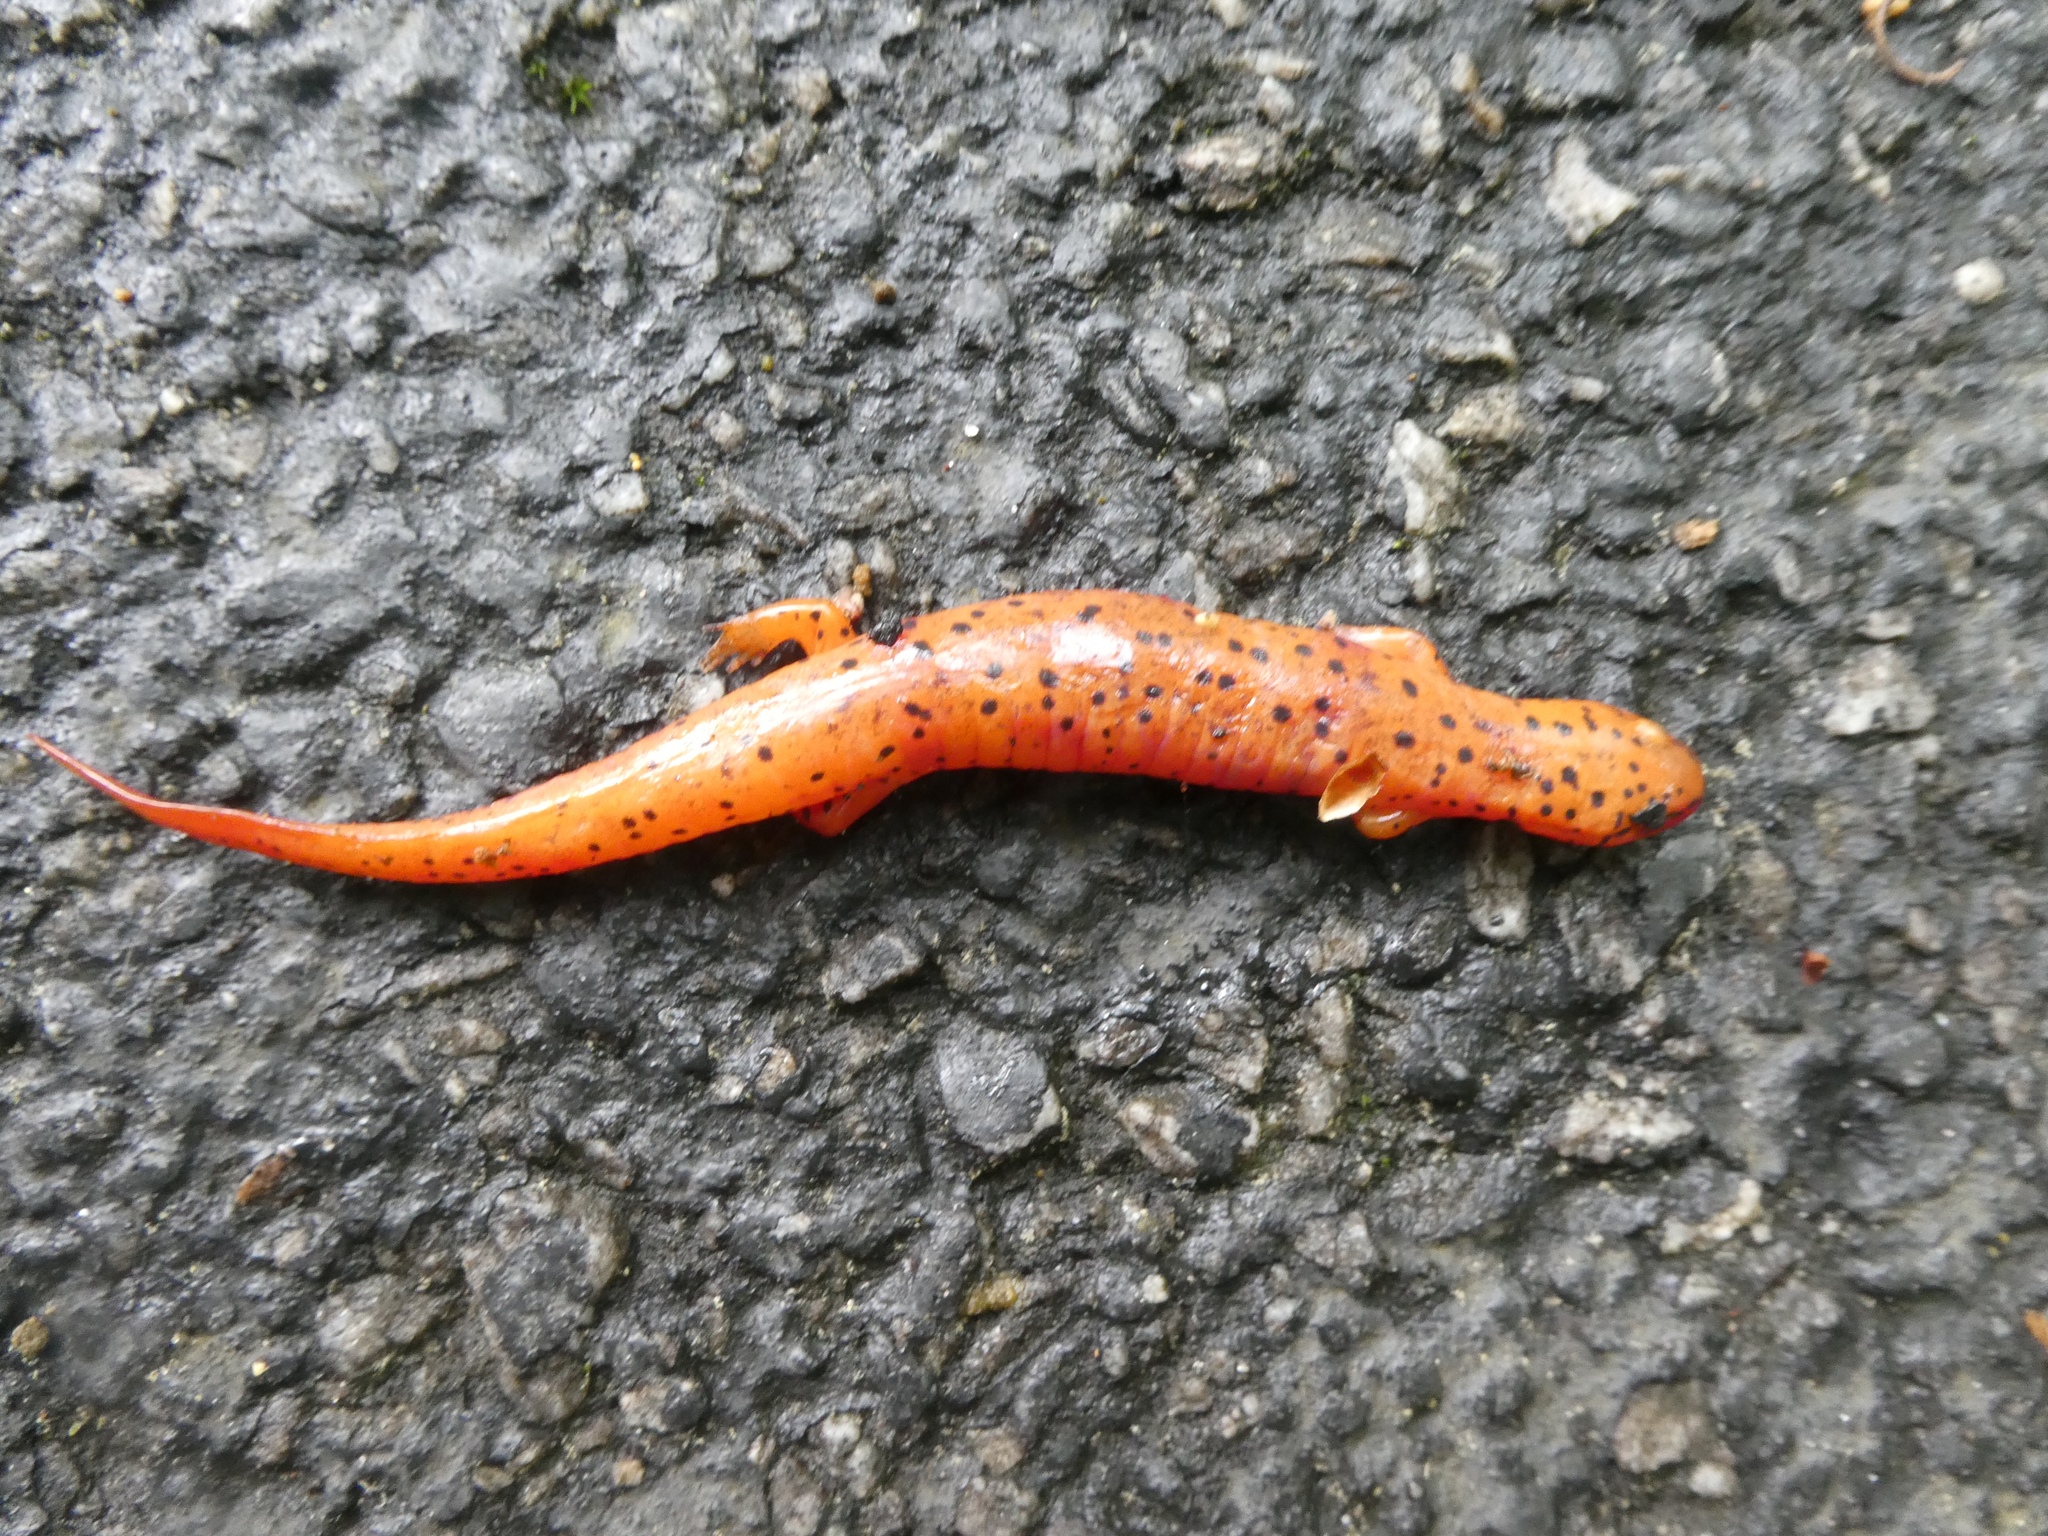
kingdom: Animalia
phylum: Chordata
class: Amphibia
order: Caudata
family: Plethodontidae
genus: Pseudotriton
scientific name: Pseudotriton ruber
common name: Red salamander
